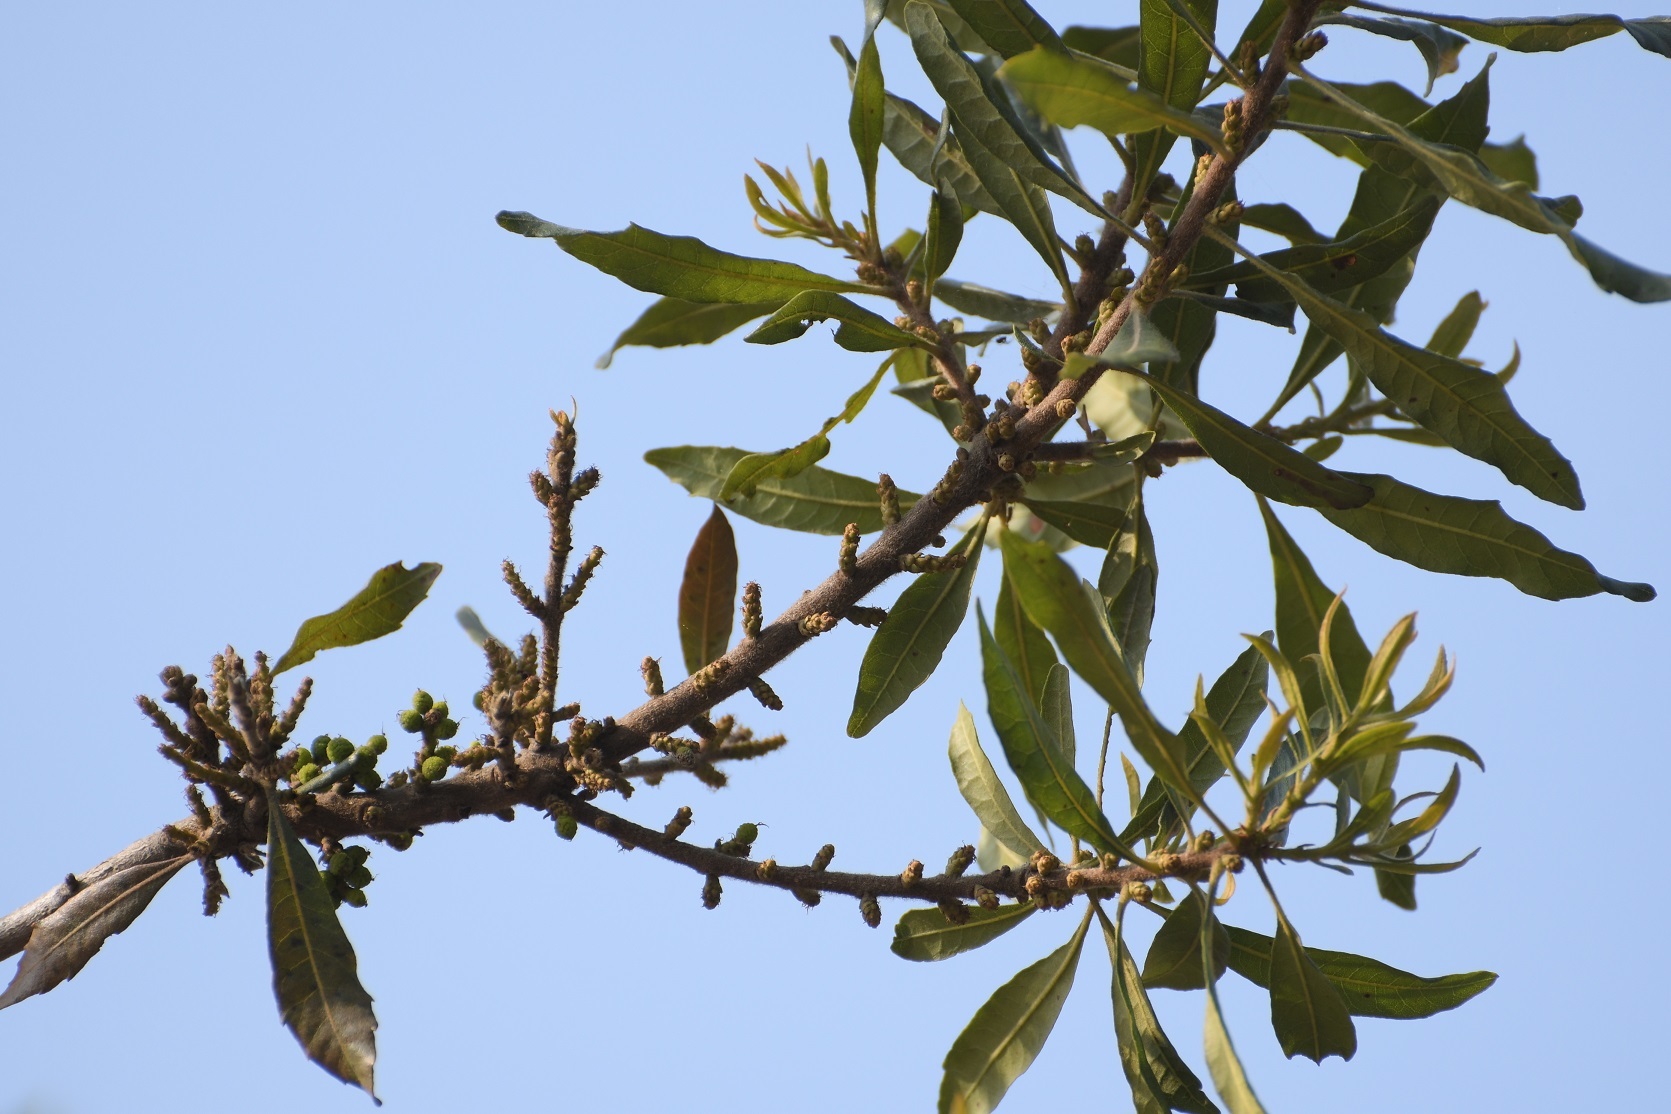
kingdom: Plantae
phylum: Tracheophyta
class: Magnoliopsida
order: Fagales
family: Myricaceae
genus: Morella
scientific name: Morella cerifera
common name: Wax myrtle
